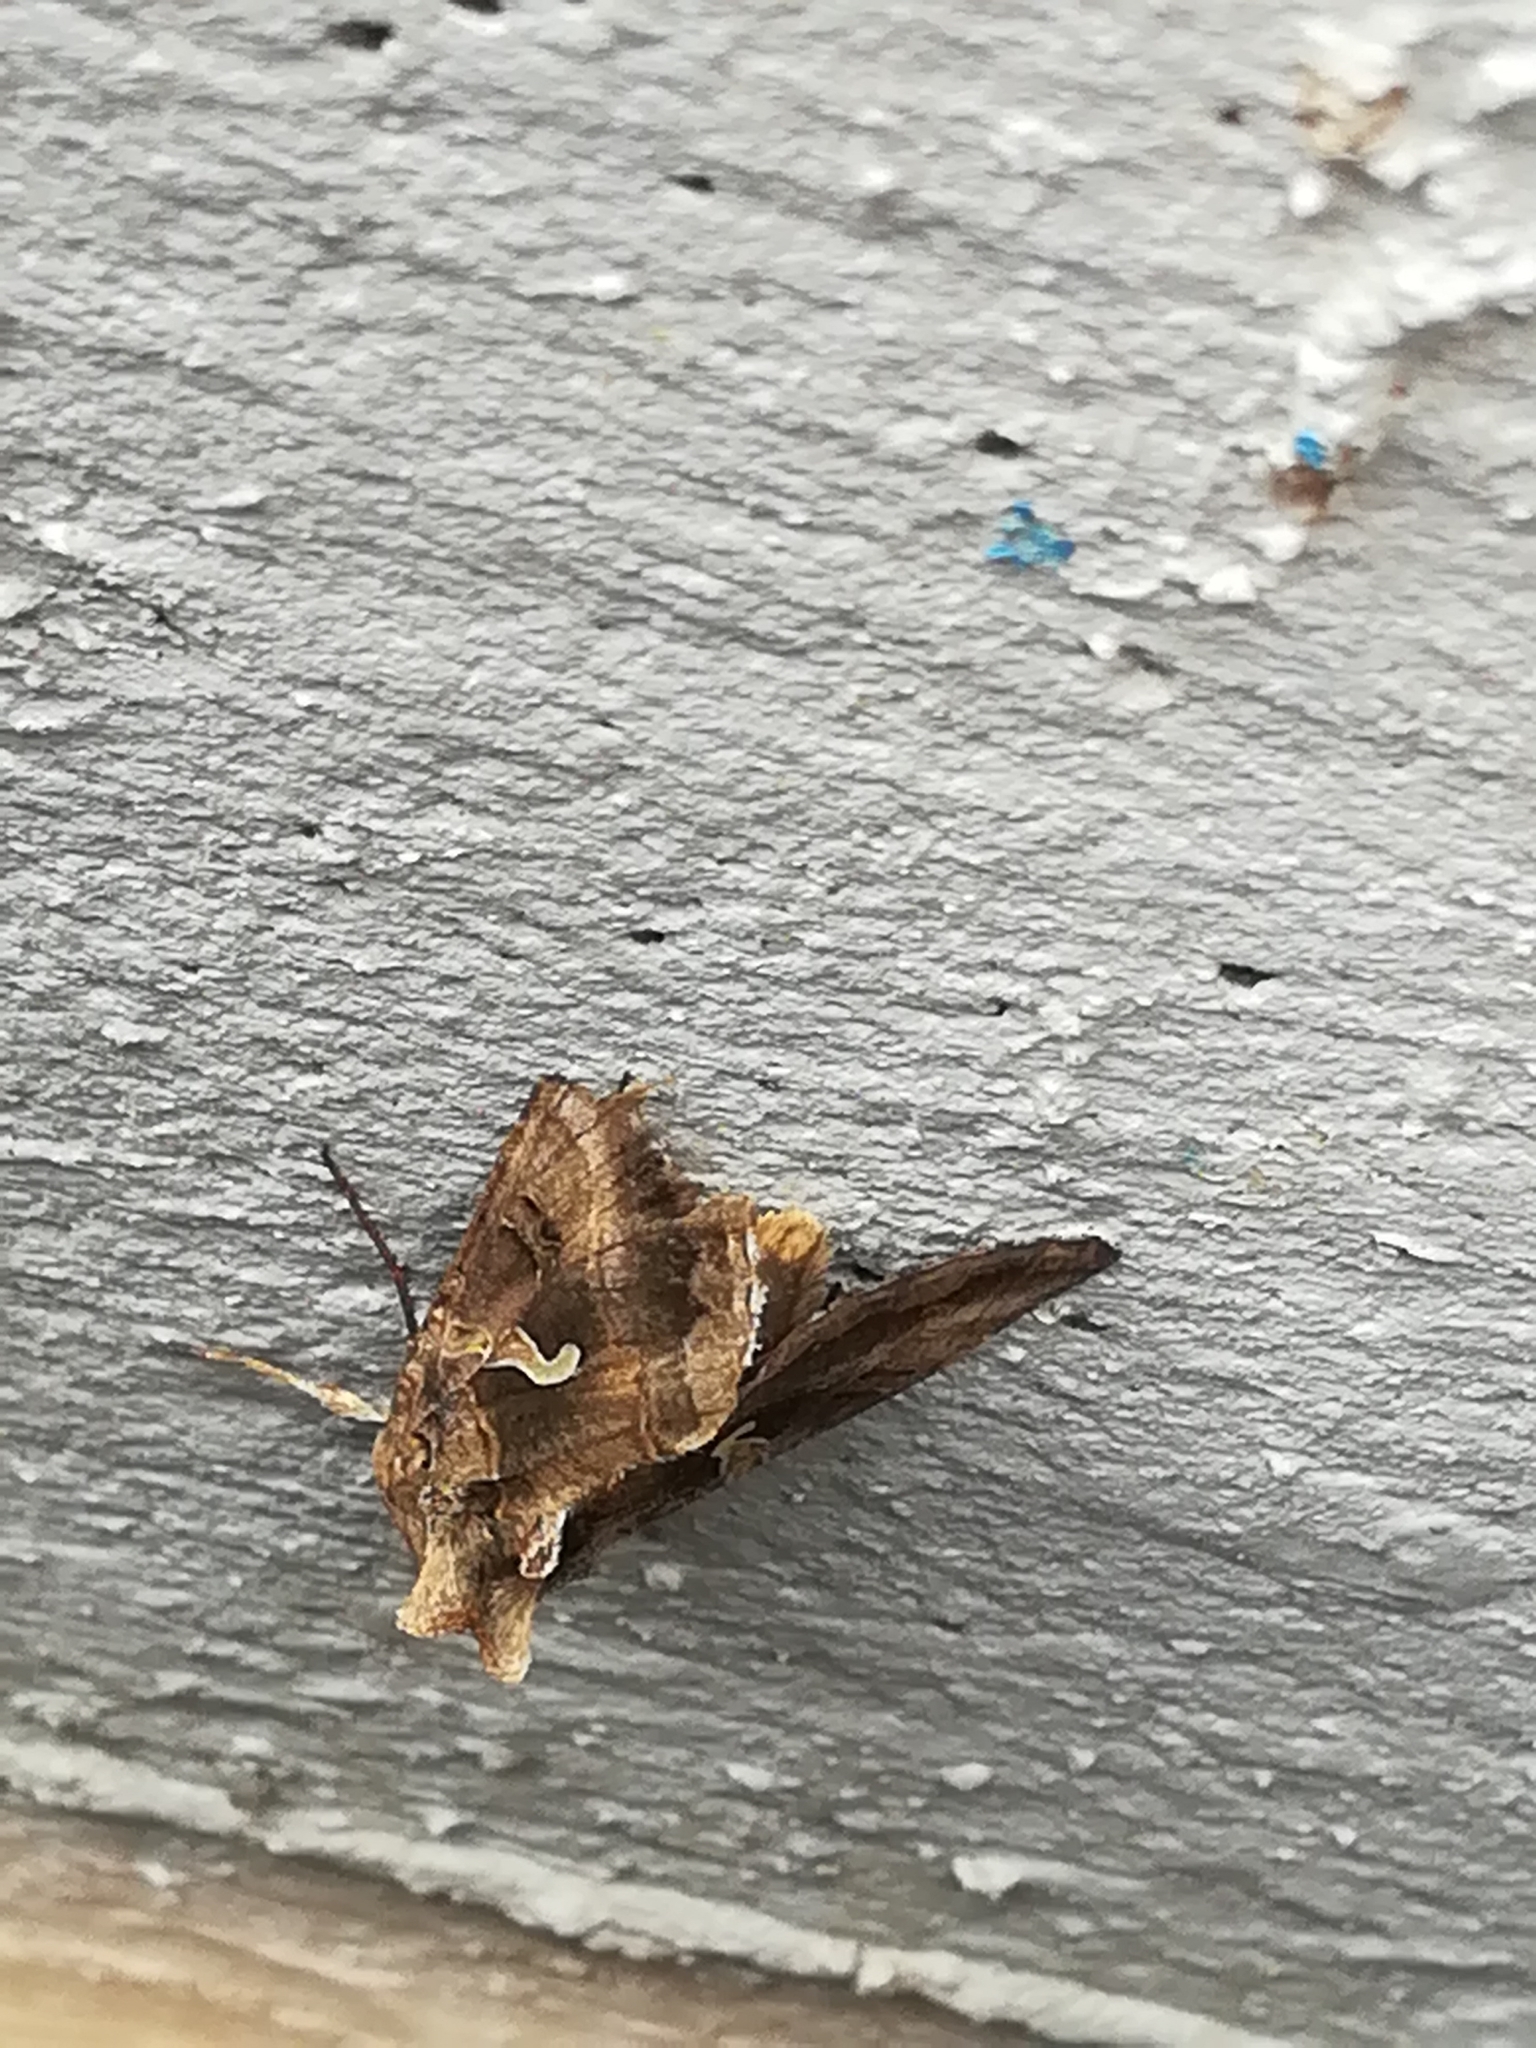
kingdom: Animalia
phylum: Arthropoda
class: Insecta
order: Lepidoptera
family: Noctuidae
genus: Autographa
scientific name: Autographa gamma
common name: Silver y
